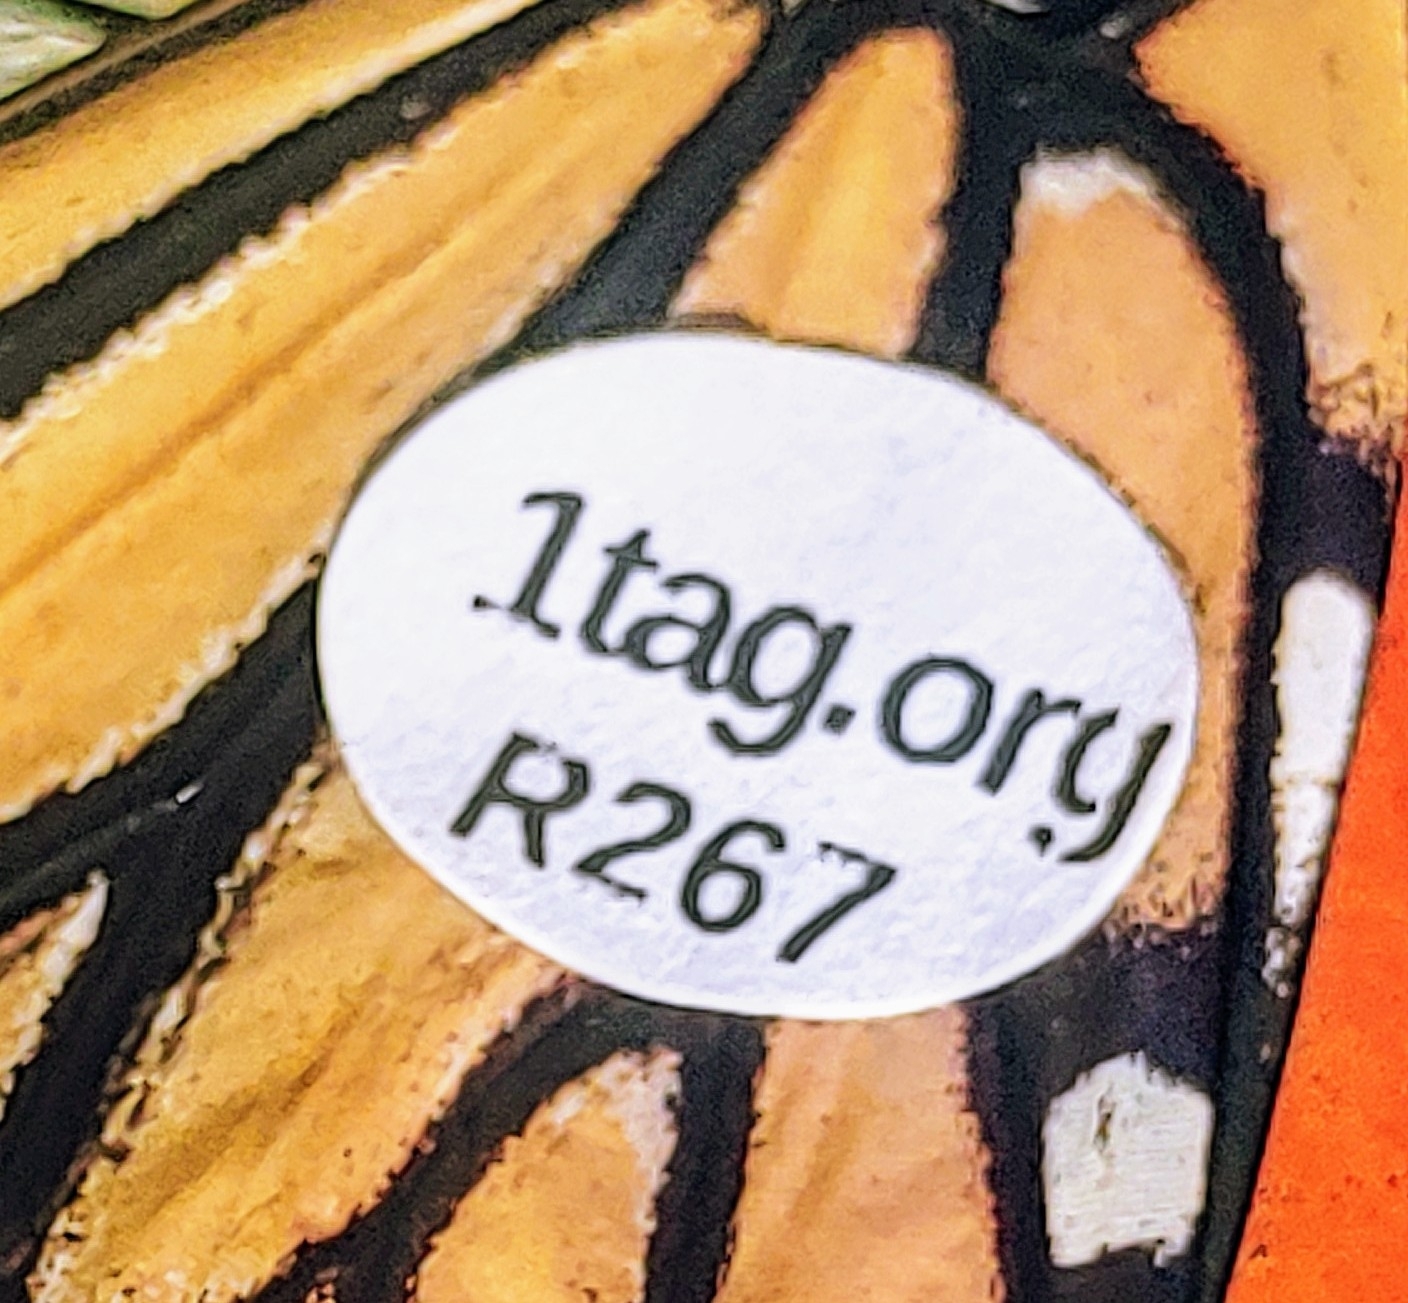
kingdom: Animalia
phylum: Arthropoda
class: Insecta
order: Lepidoptera
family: Nymphalidae
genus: Danaus
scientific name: Danaus plexippus
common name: Monarch
